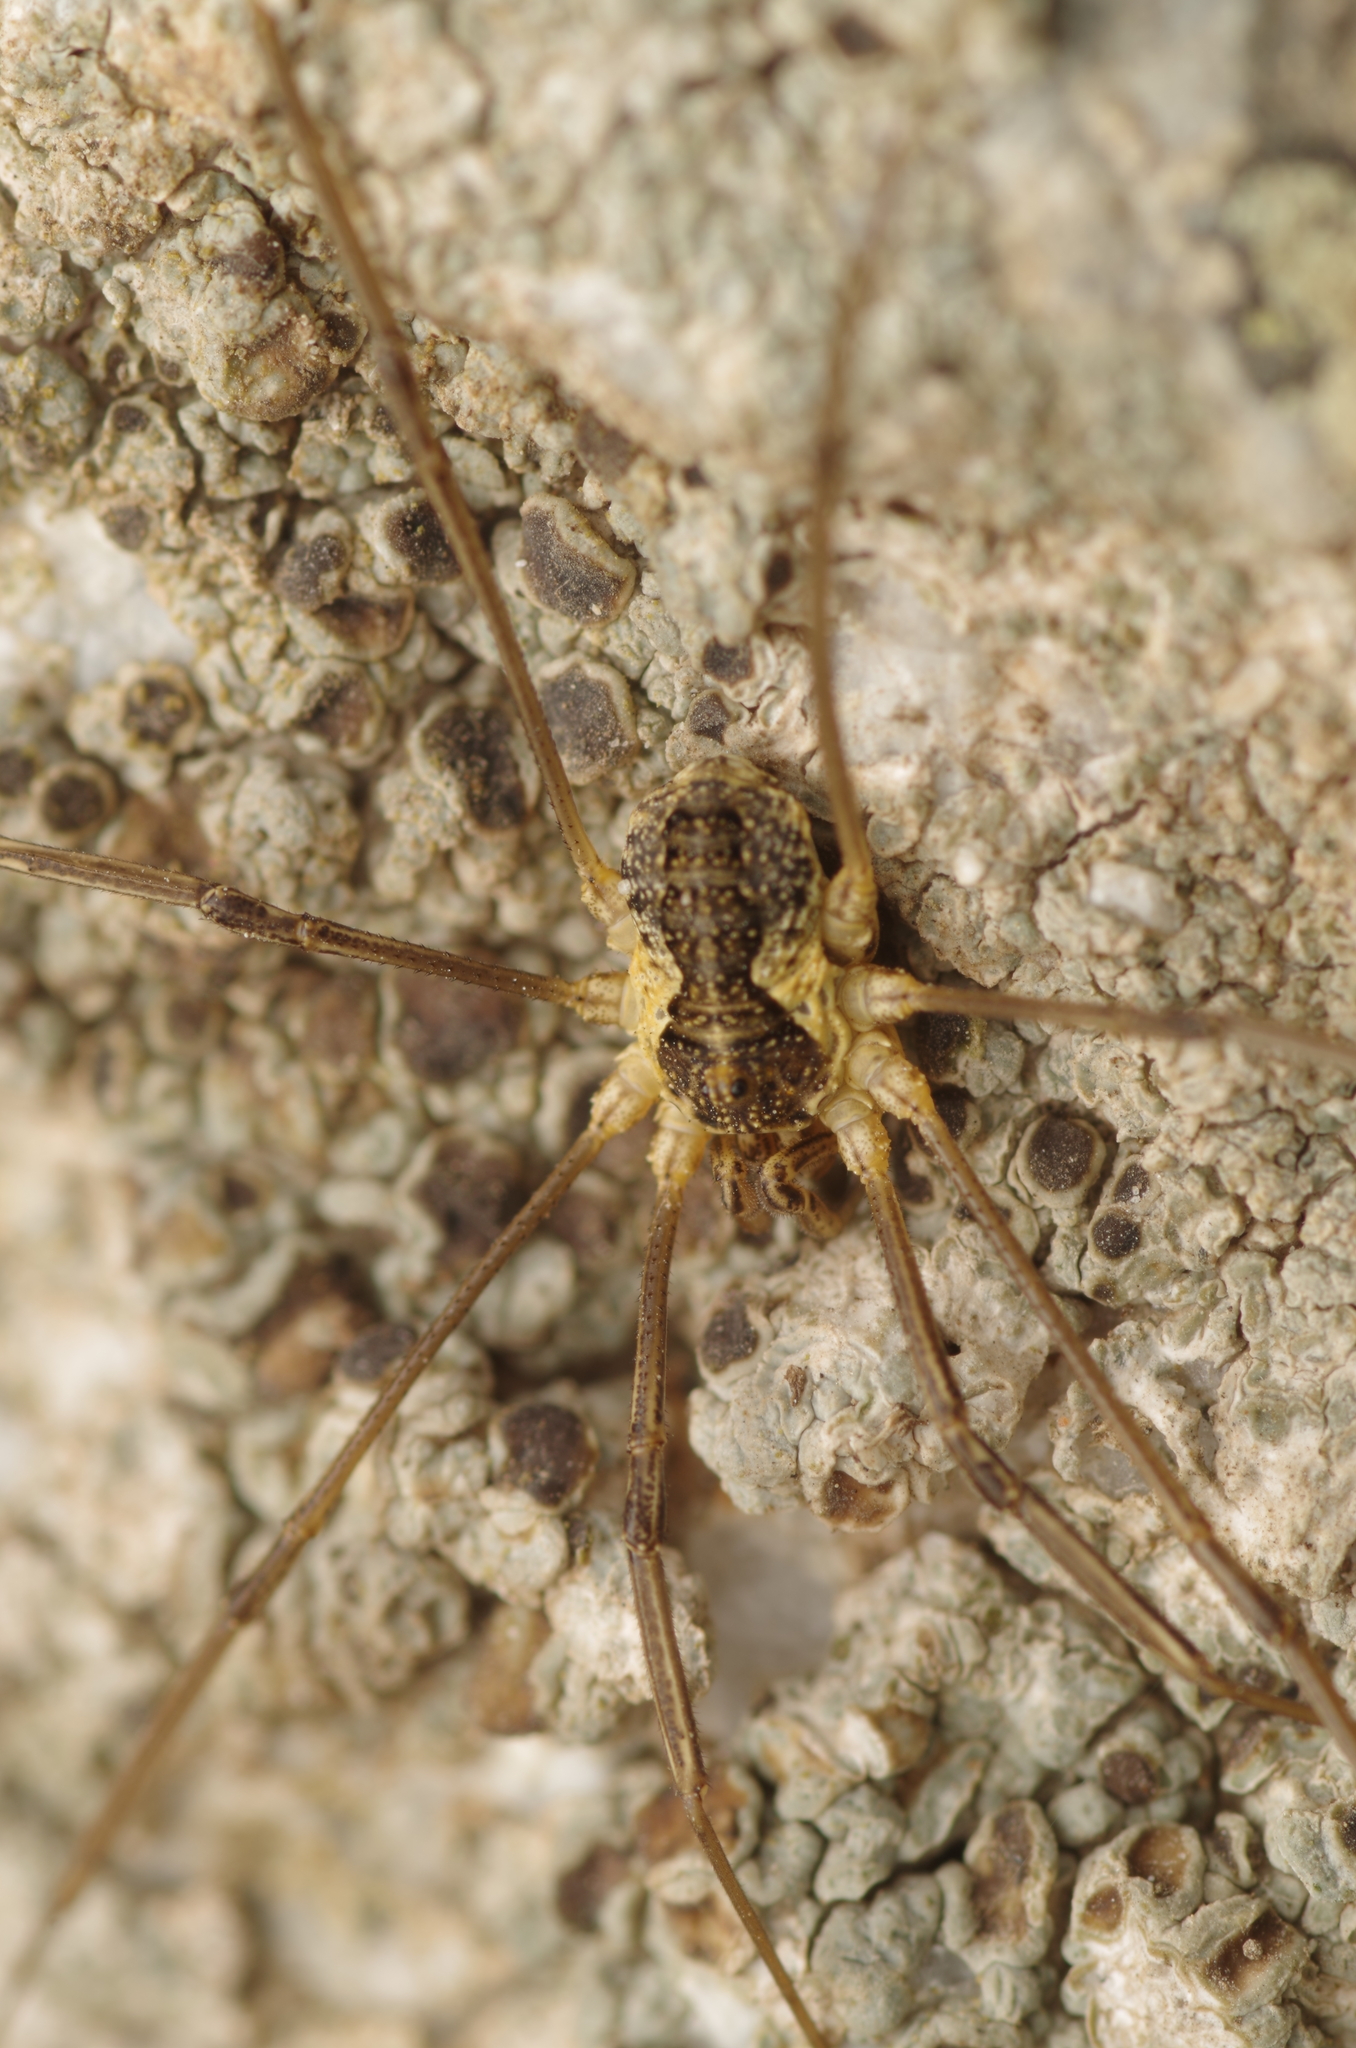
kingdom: Animalia
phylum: Arthropoda
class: Arachnida
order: Opiliones
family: Phalangiidae
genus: Mitopus
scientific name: Mitopus morio
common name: Saddleback harvestman
